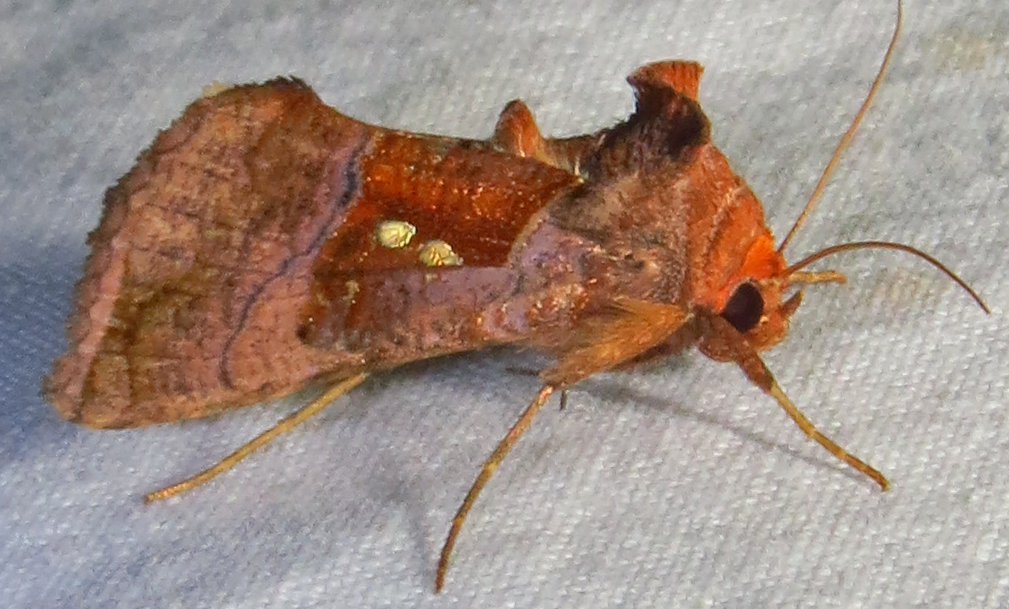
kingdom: Animalia
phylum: Arthropoda
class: Insecta
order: Lepidoptera
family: Noctuidae
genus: Enigmogramma
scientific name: Enigmogramma basigera
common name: Pink-washed looper moth
